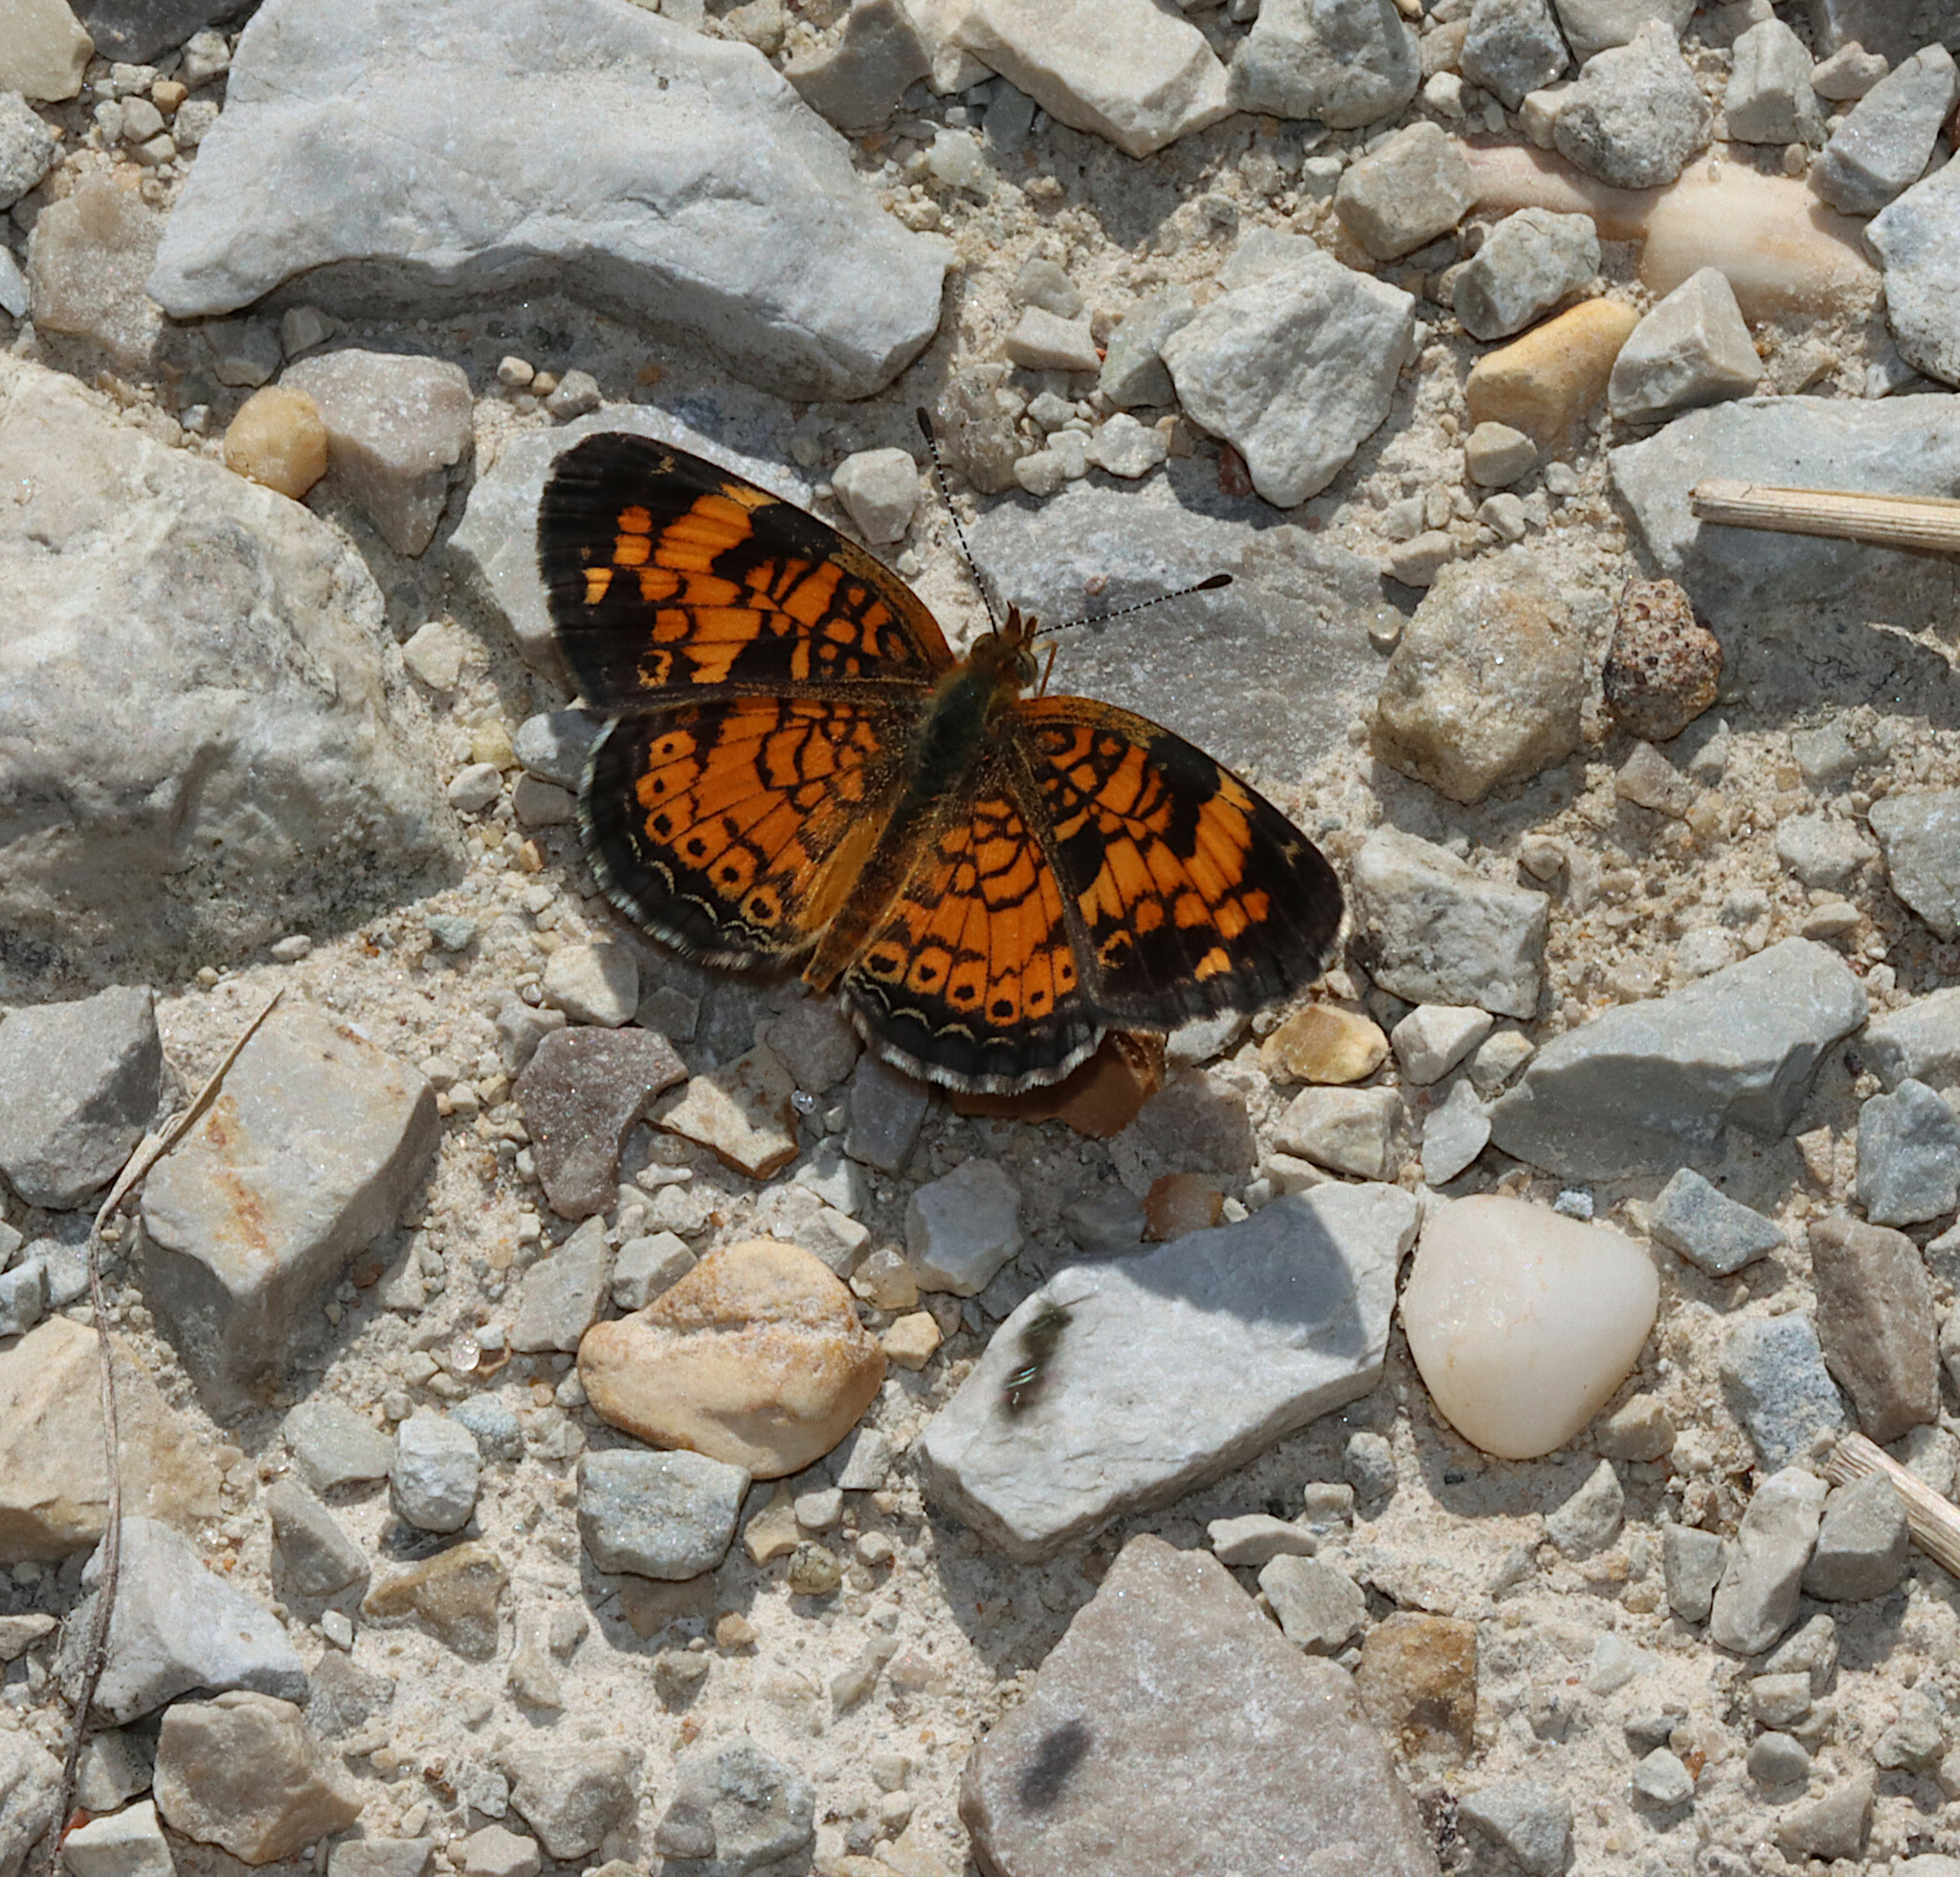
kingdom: Animalia
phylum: Arthropoda
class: Insecta
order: Lepidoptera
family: Nymphalidae
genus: Phyciodes
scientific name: Phyciodes tharos
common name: Pearl crescent
